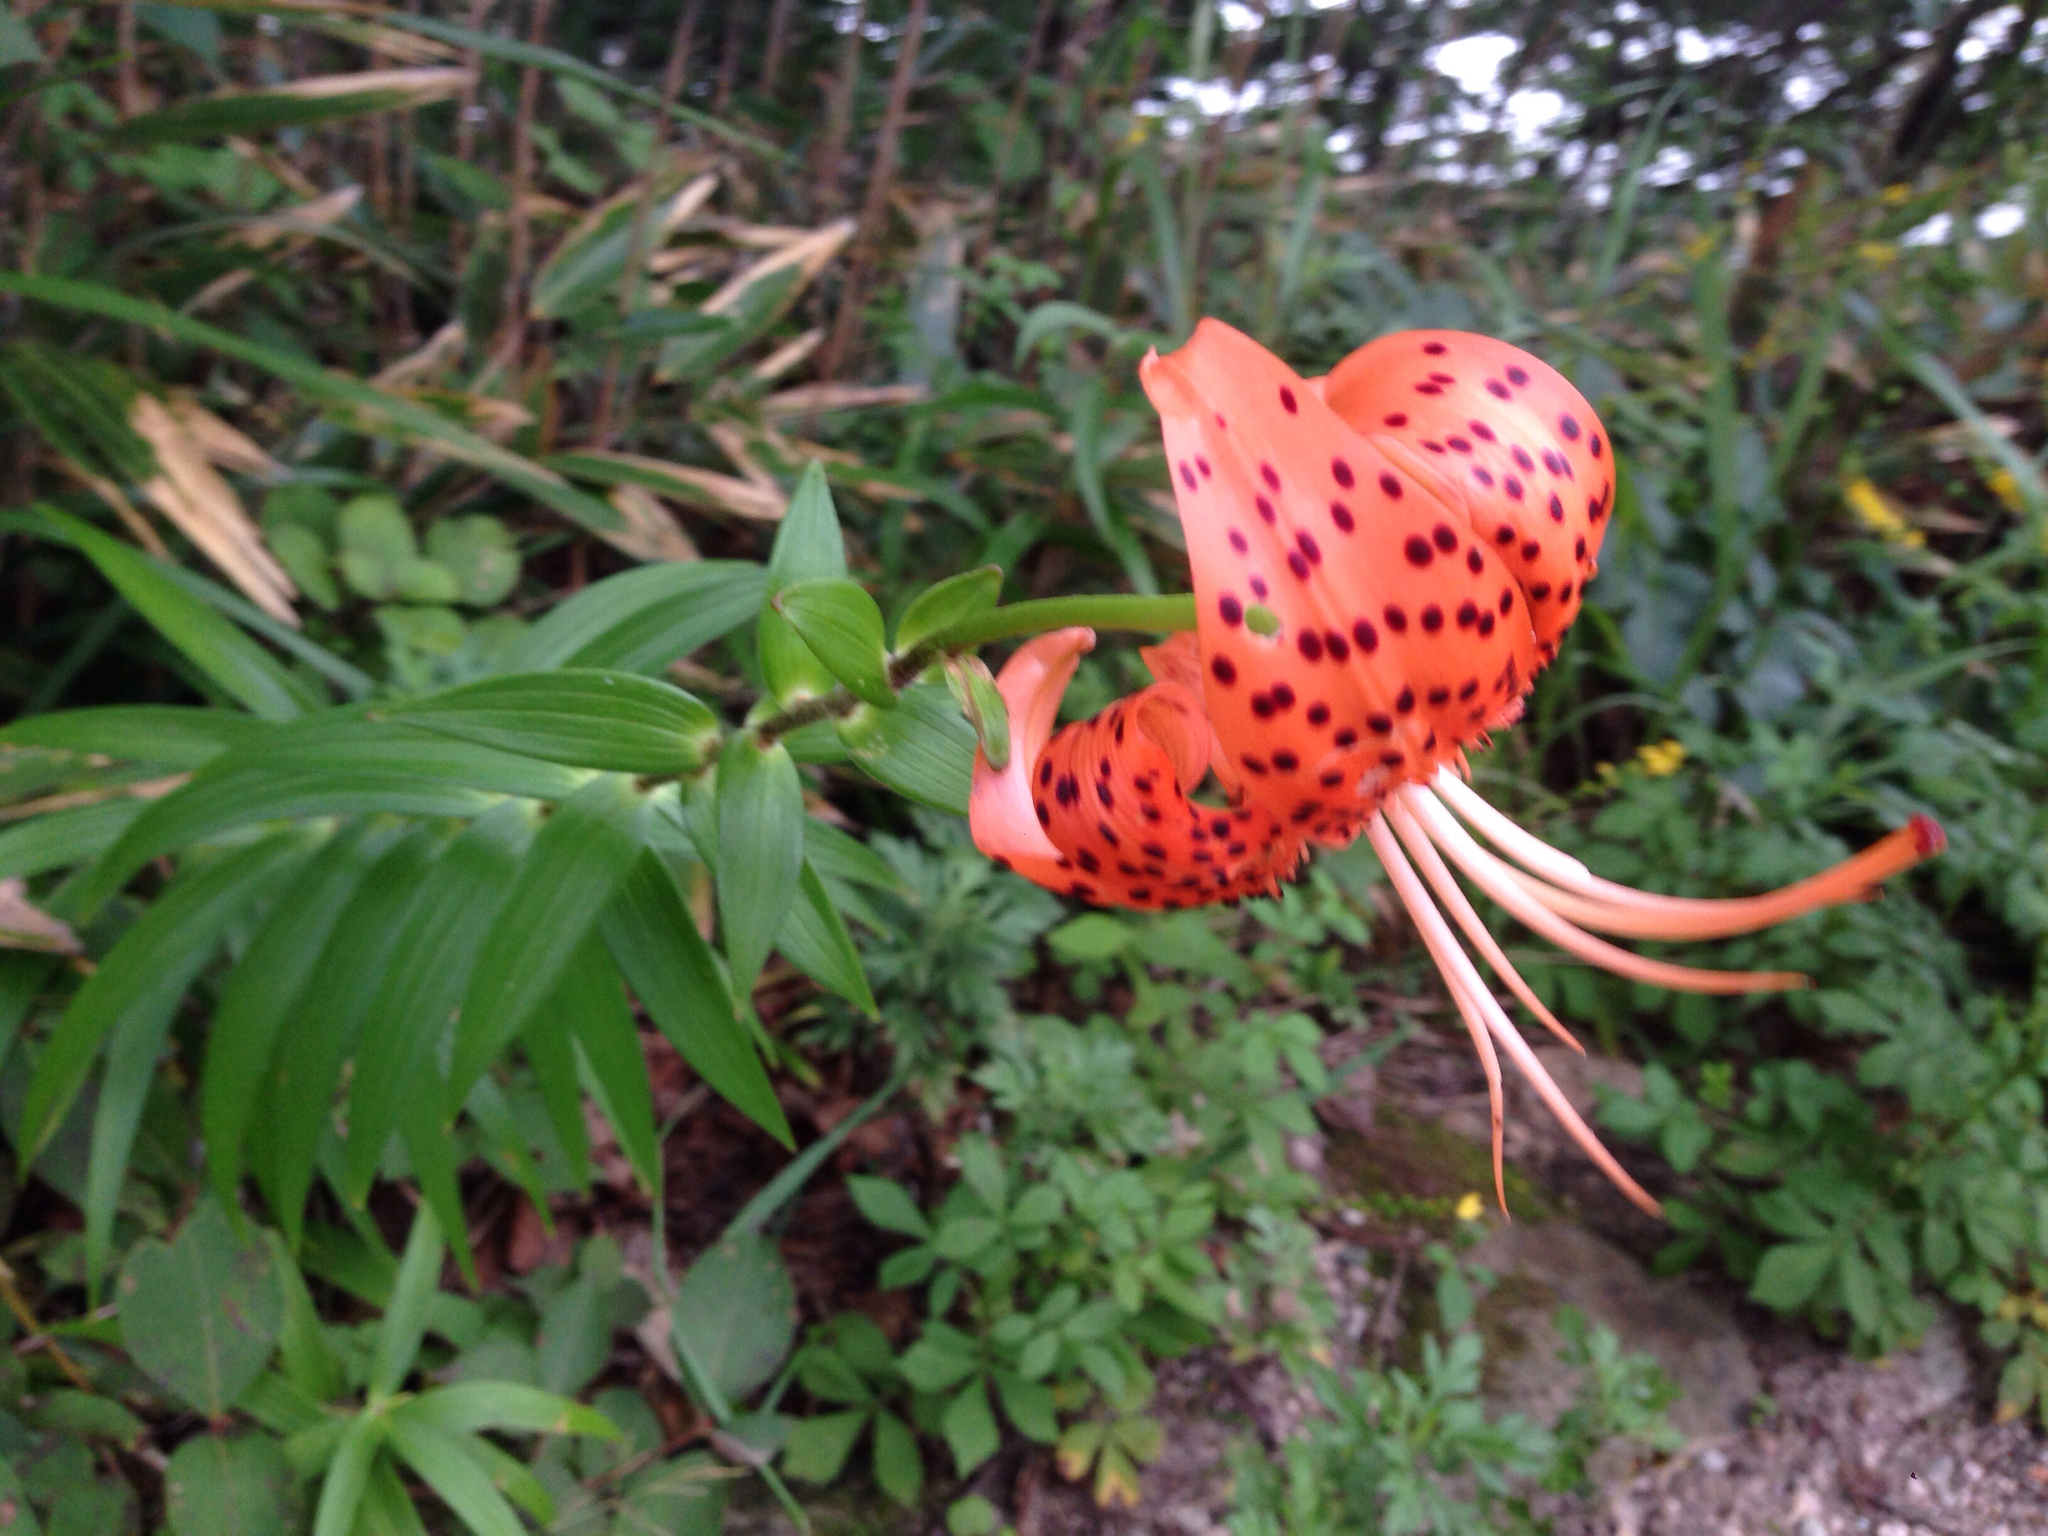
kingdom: Plantae
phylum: Tracheophyta
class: Liliopsida
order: Liliales
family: Liliaceae
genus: Lilium
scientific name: Lilium lancifolium
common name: Tiger lily
